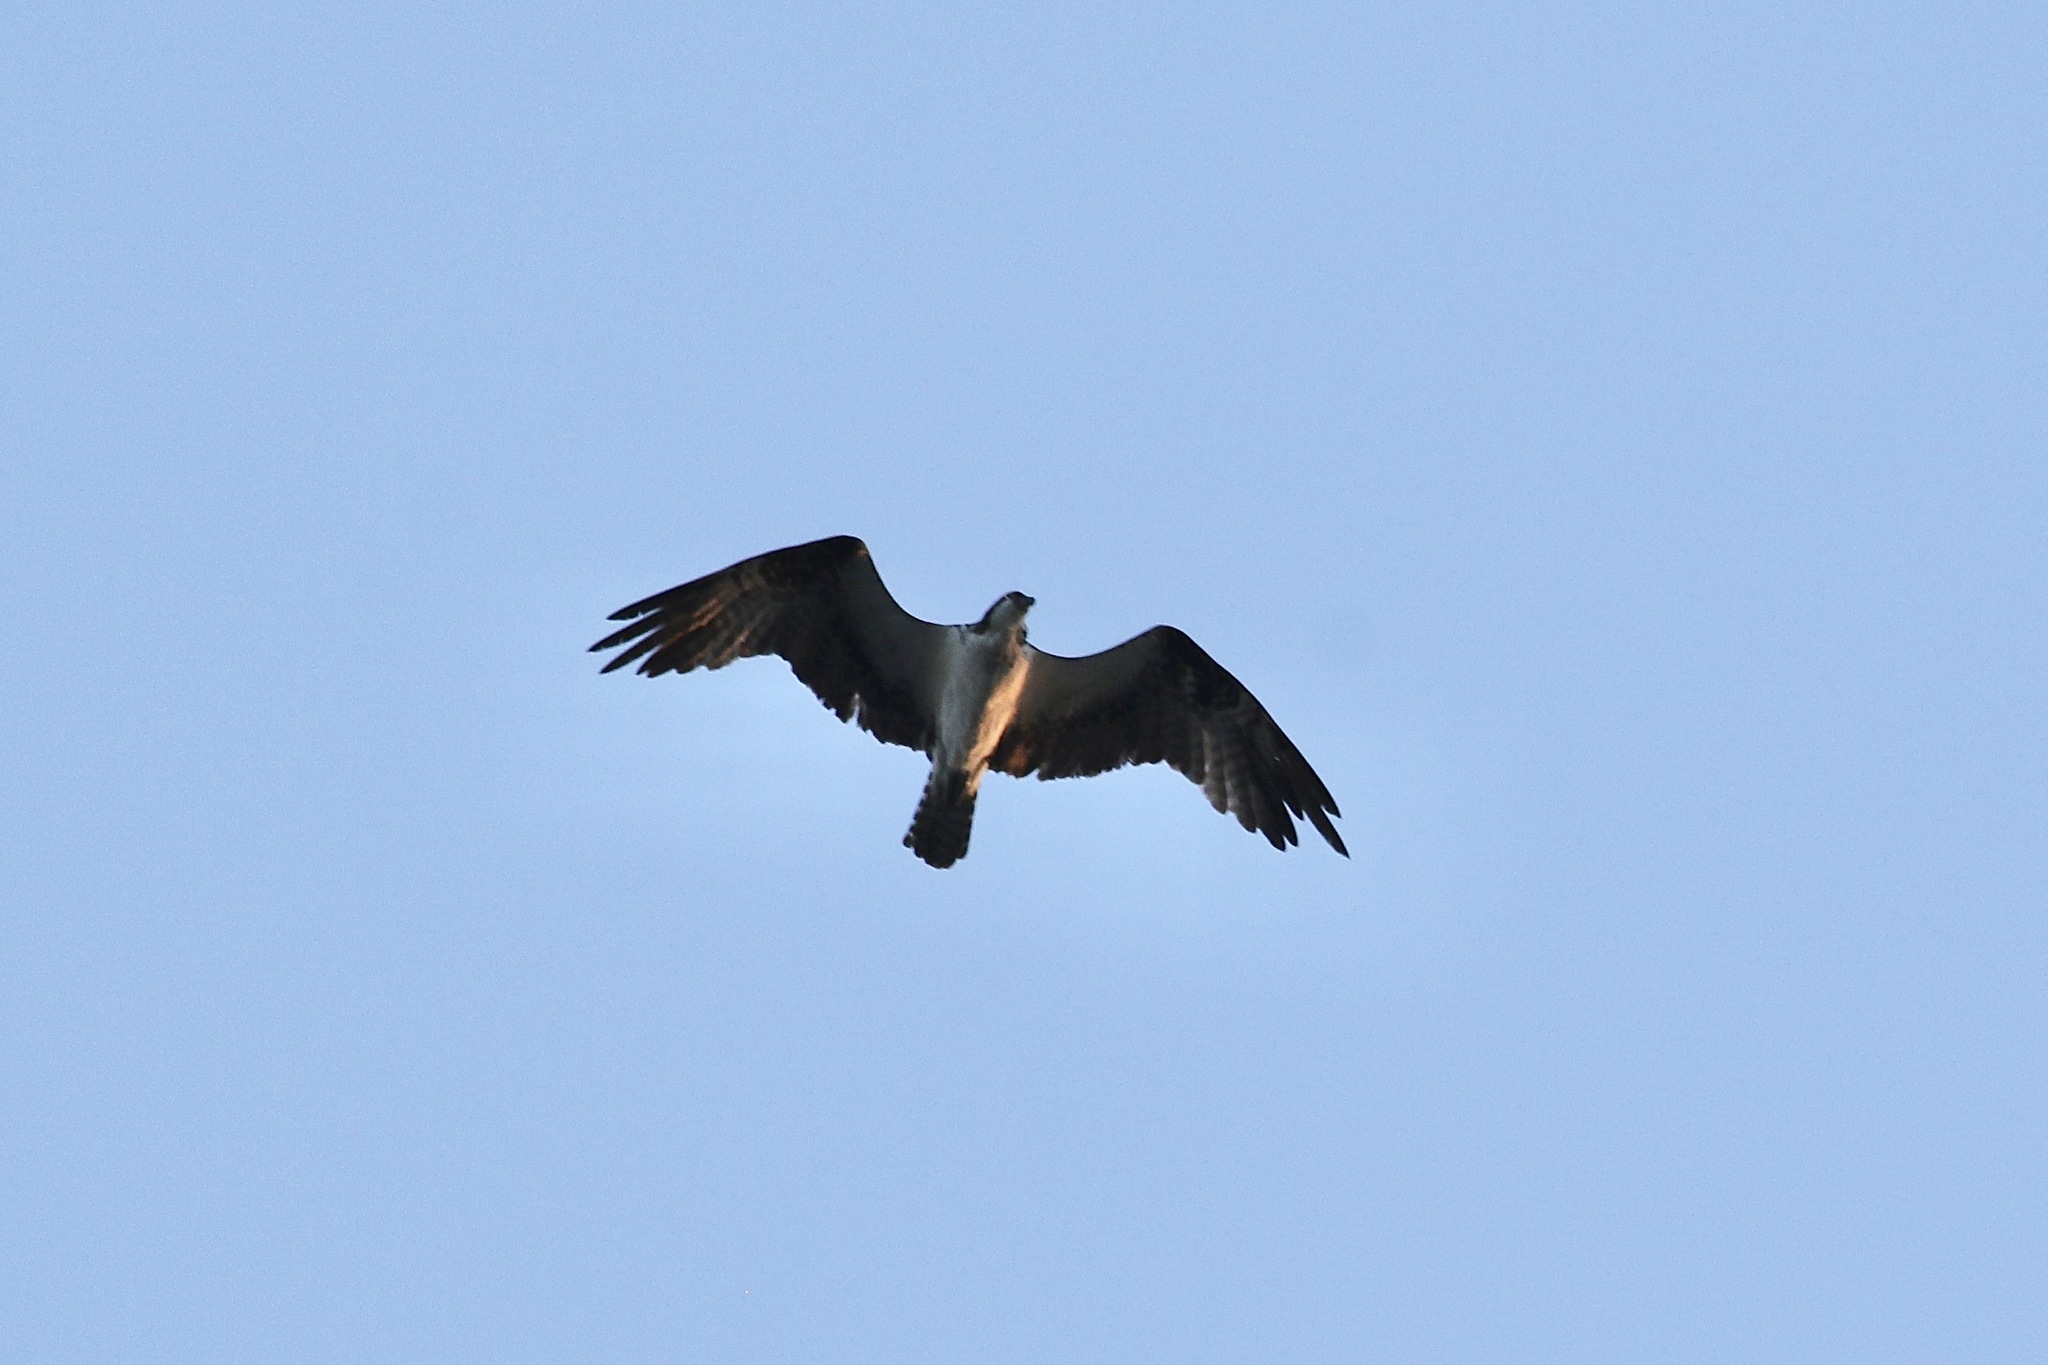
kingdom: Animalia
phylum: Chordata
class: Aves
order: Accipitriformes
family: Pandionidae
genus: Pandion
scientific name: Pandion haliaetus
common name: Osprey
